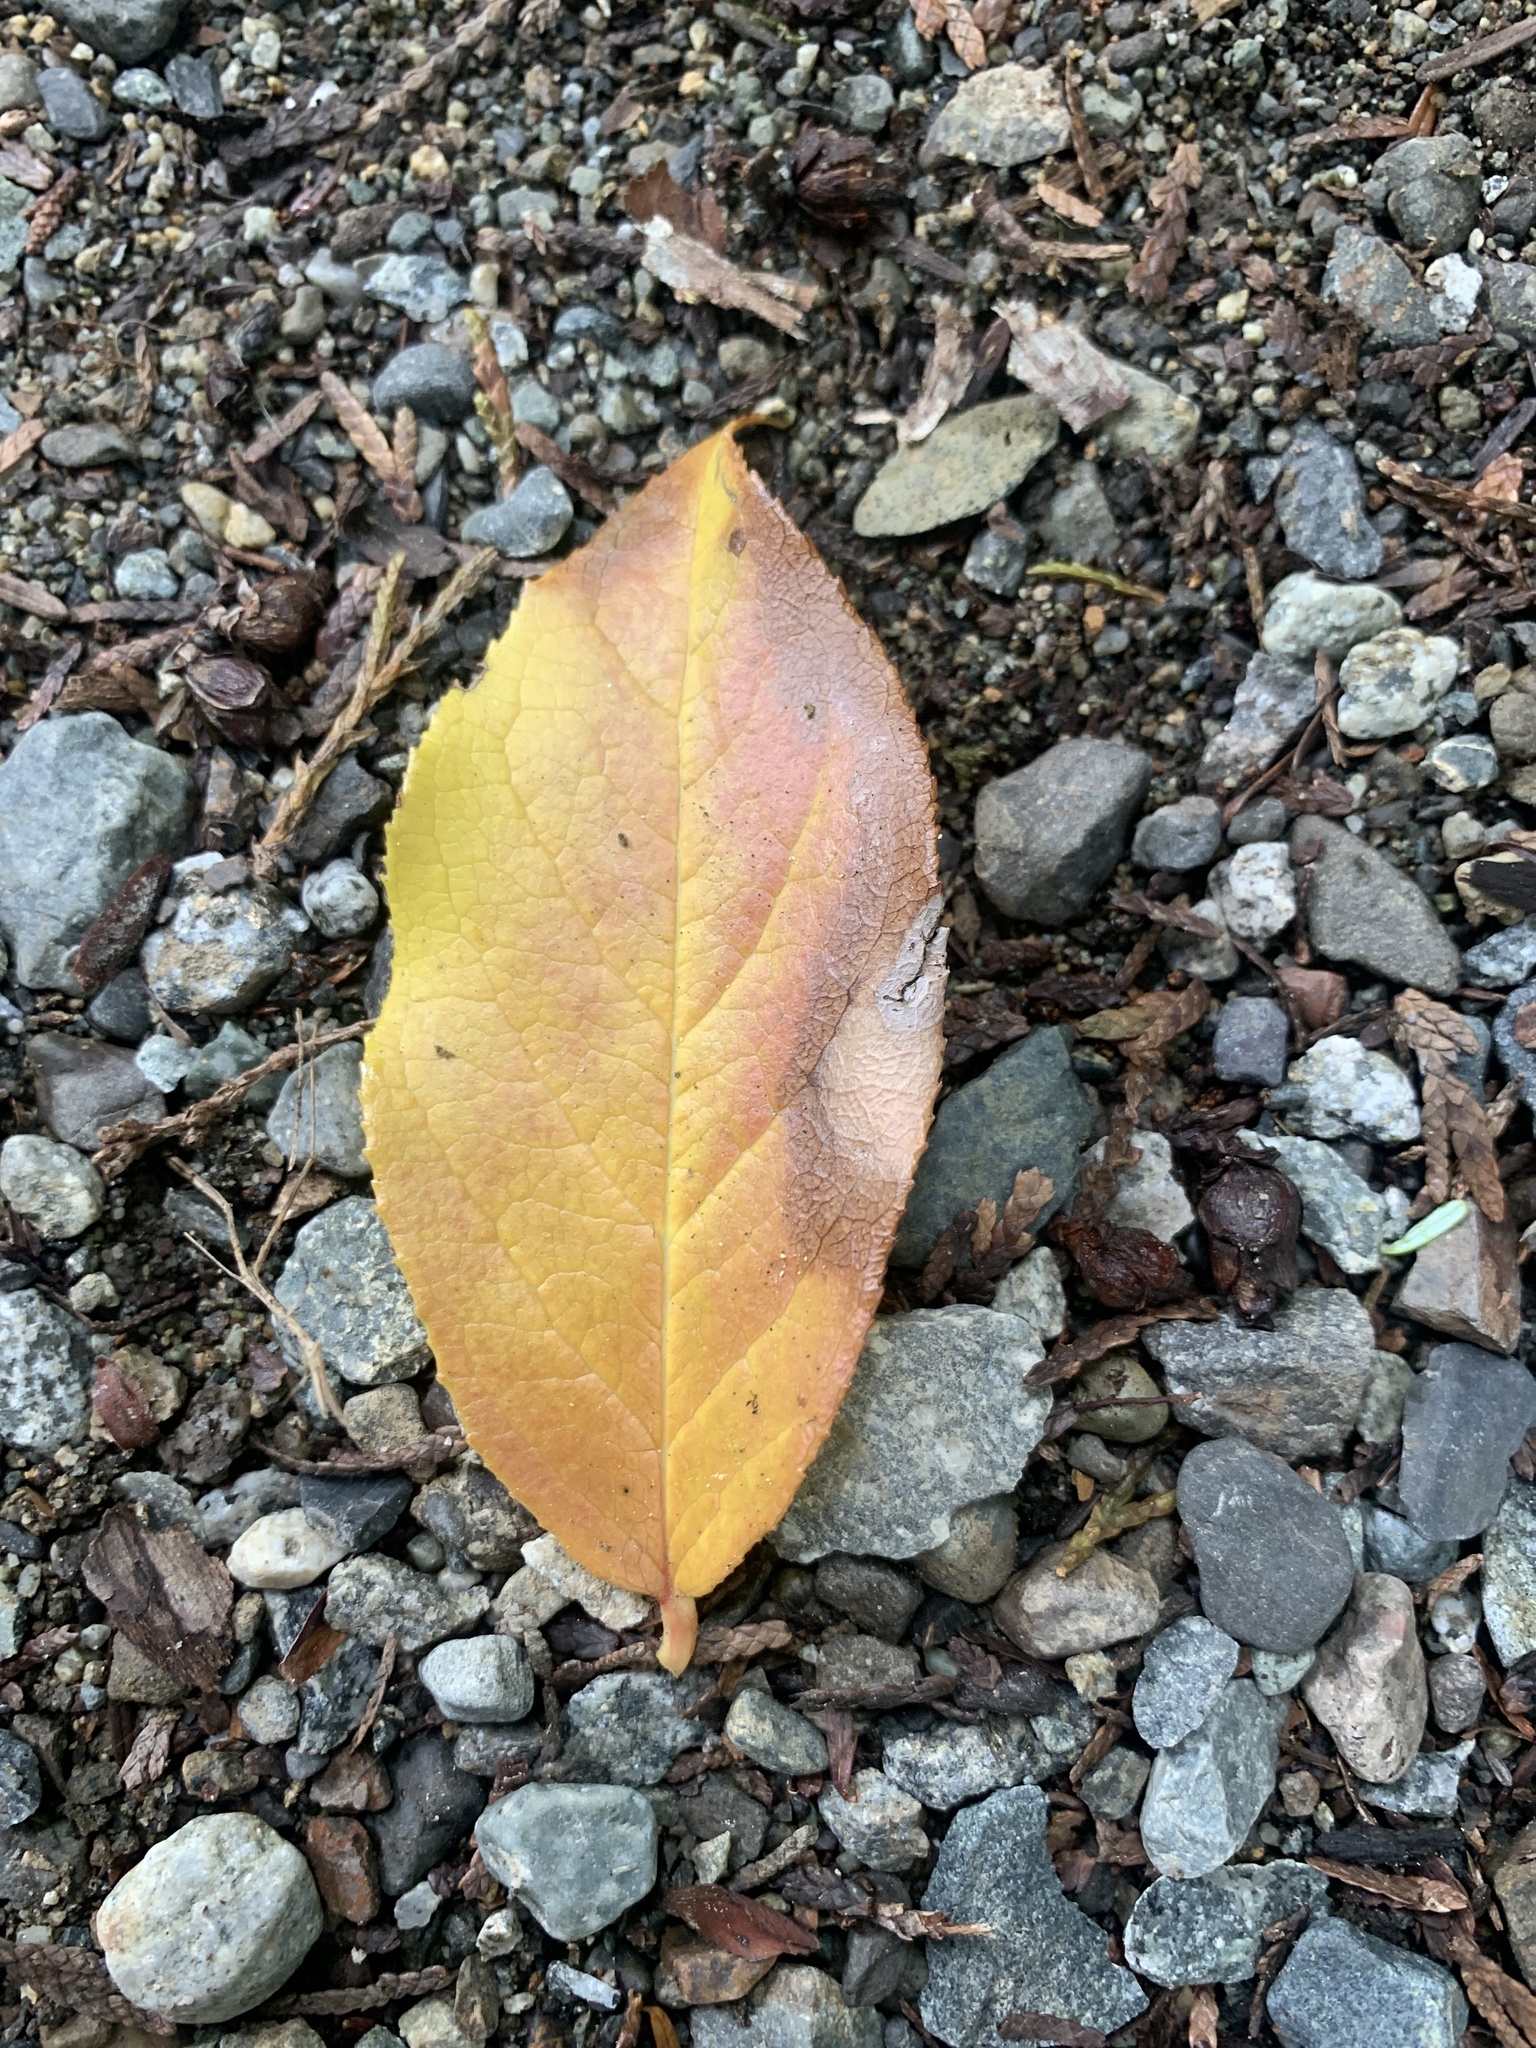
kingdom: Plantae
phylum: Tracheophyta
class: Magnoliopsida
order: Ericales
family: Ericaceae
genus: Gaultheria
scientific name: Gaultheria shallon
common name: Shallon
